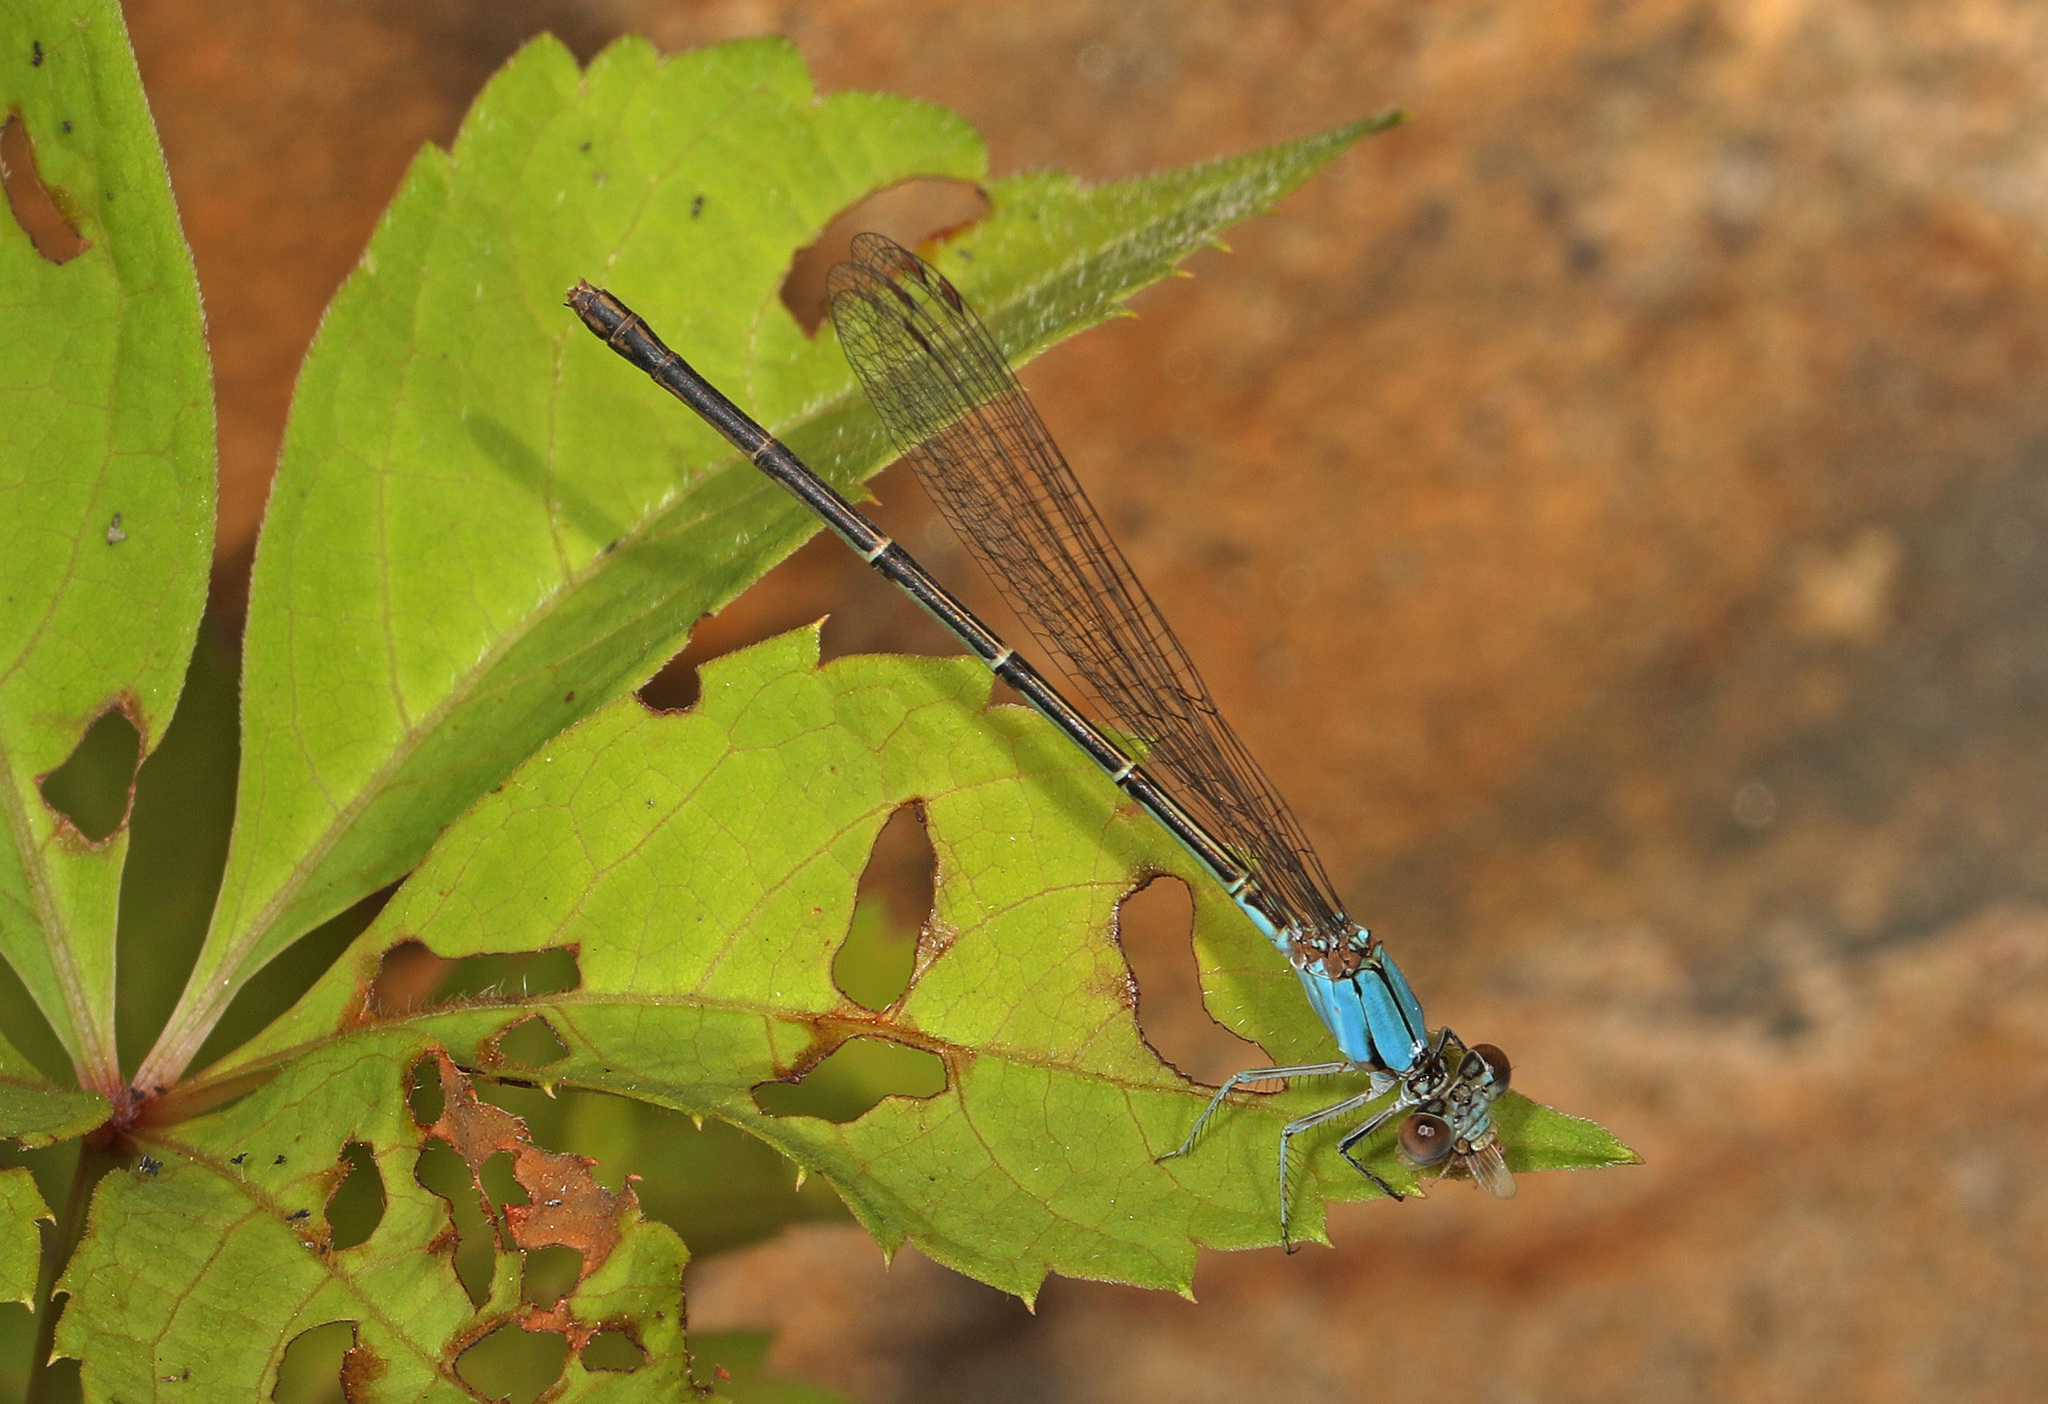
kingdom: Animalia
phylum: Arthropoda
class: Insecta
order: Odonata
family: Coenagrionidae
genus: Argia
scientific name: Argia apicalis
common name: Blue-fronted dancer
